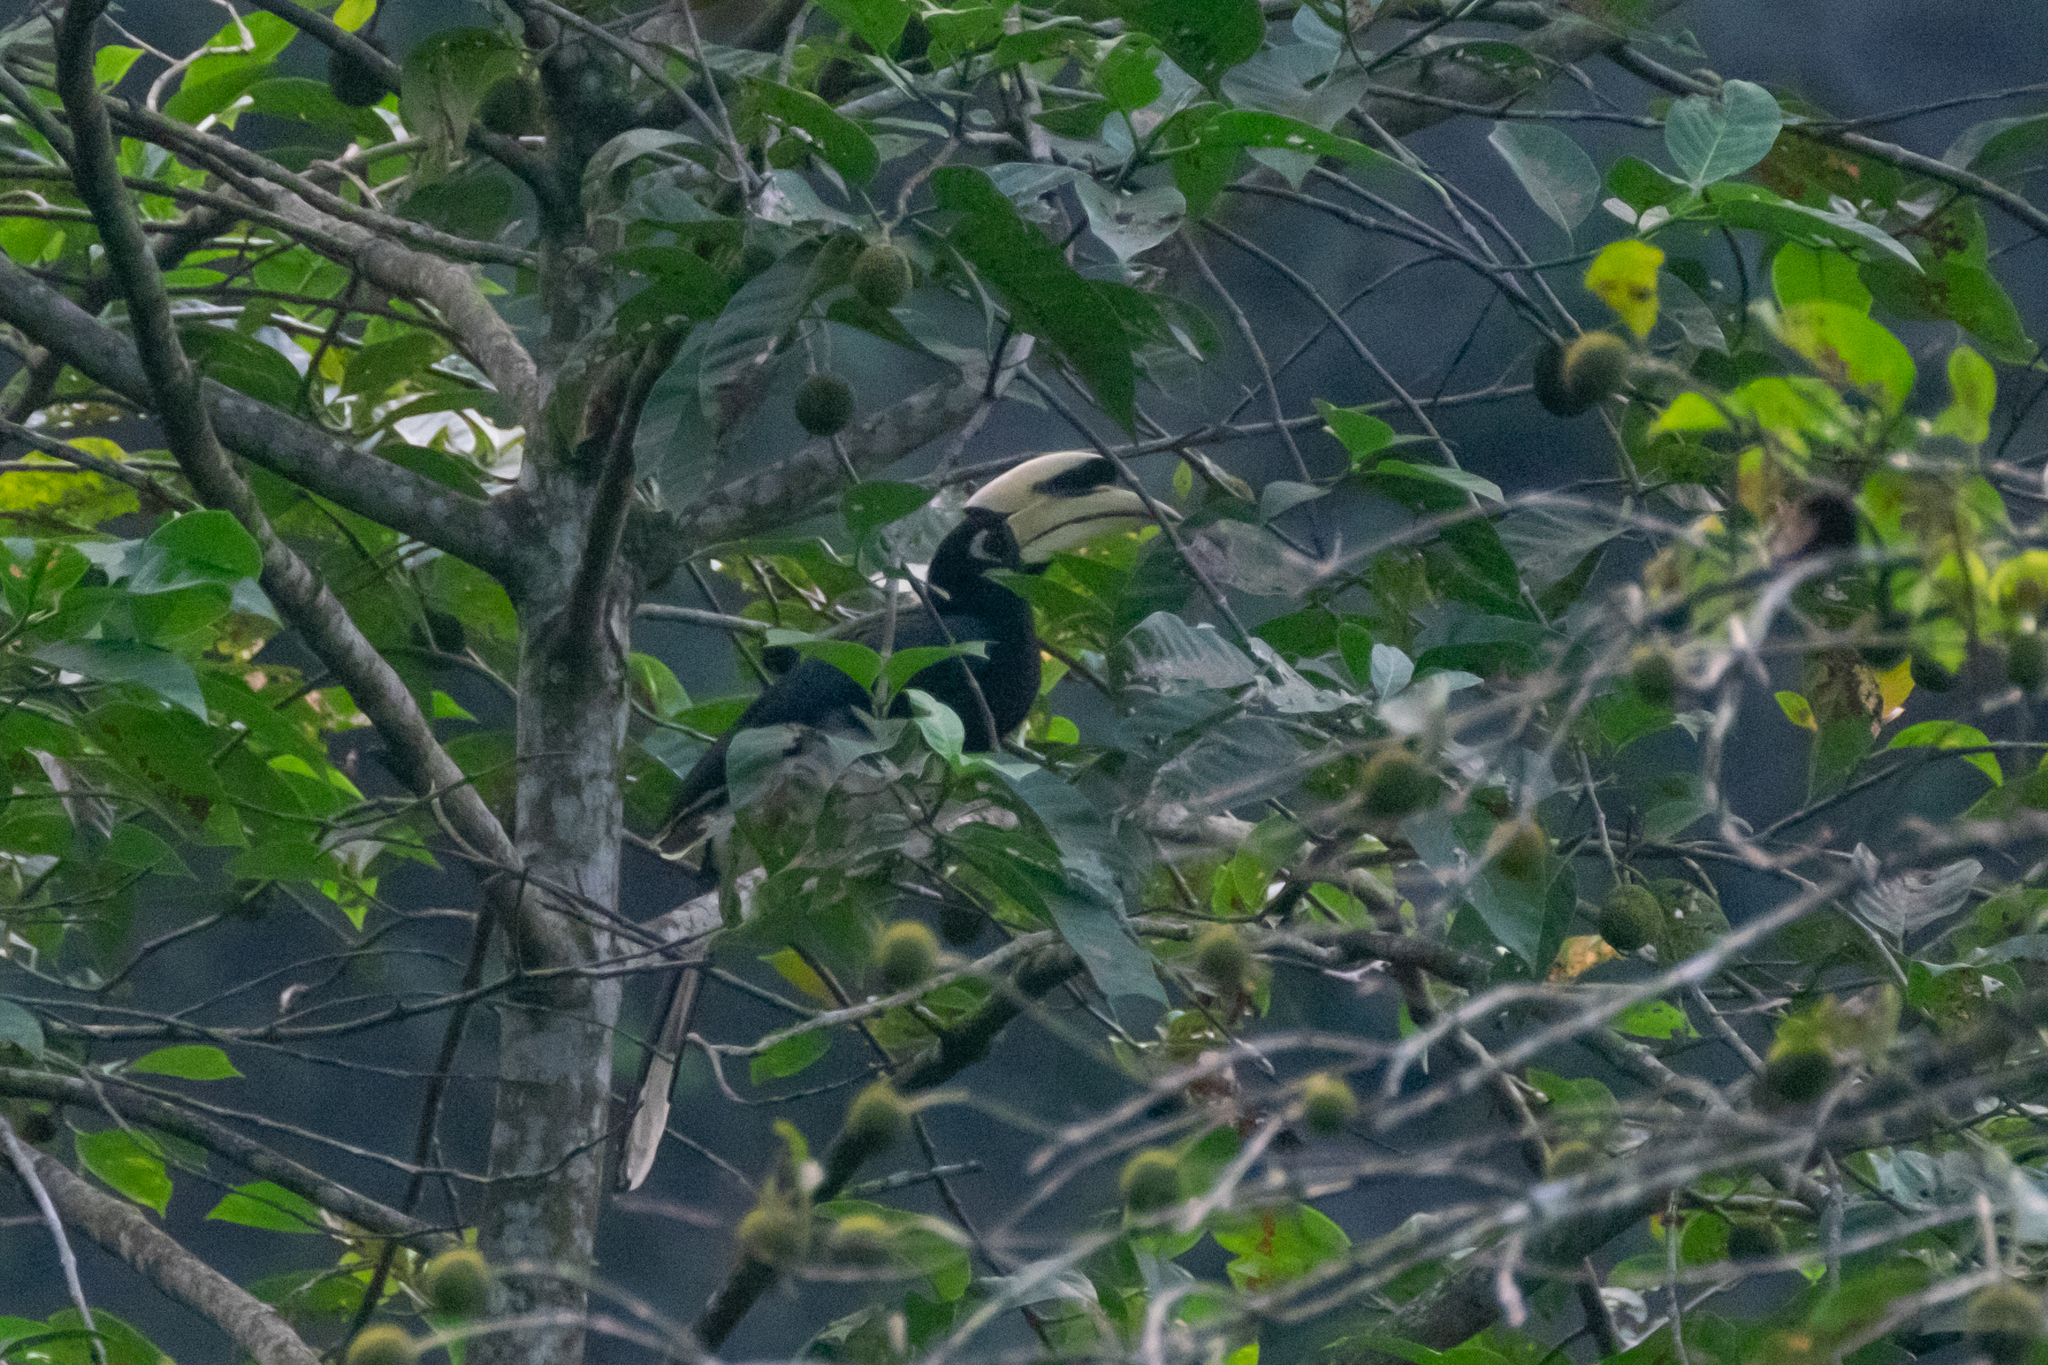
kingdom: Animalia
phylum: Chordata
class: Aves
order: Bucerotiformes
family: Bucerotidae
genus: Anthracoceros
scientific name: Anthracoceros albirostris
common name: Oriental pied-hornbill
